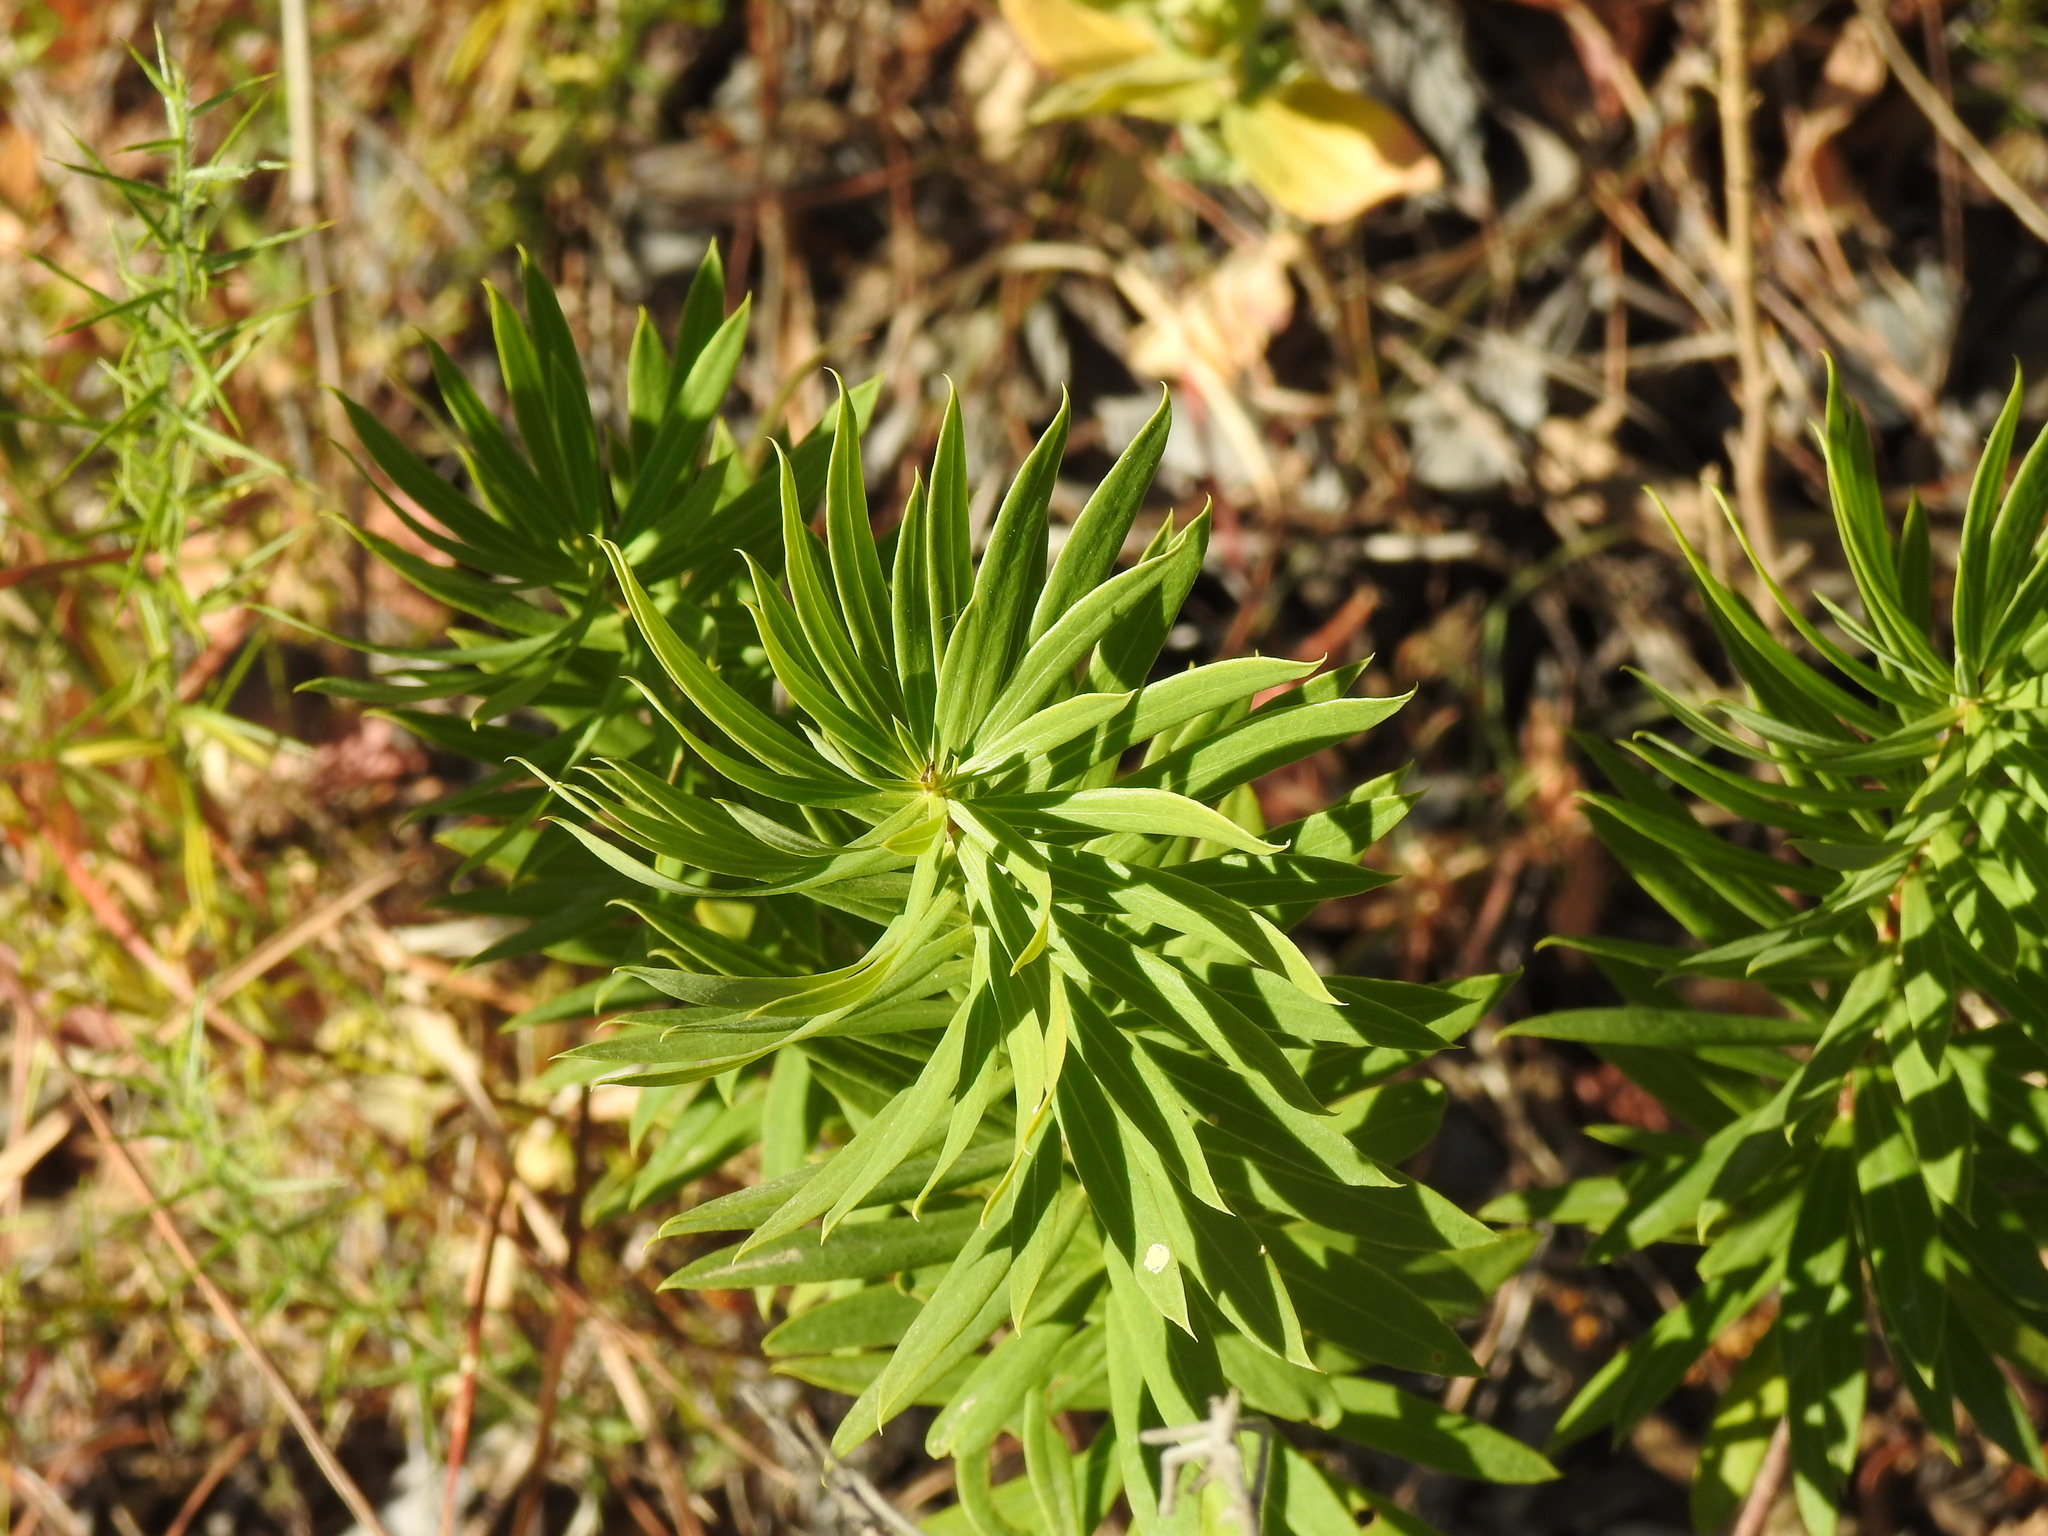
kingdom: Plantae
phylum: Tracheophyta
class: Magnoliopsida
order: Malvales
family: Thymelaeaceae
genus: Daphne
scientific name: Daphne gnidium
